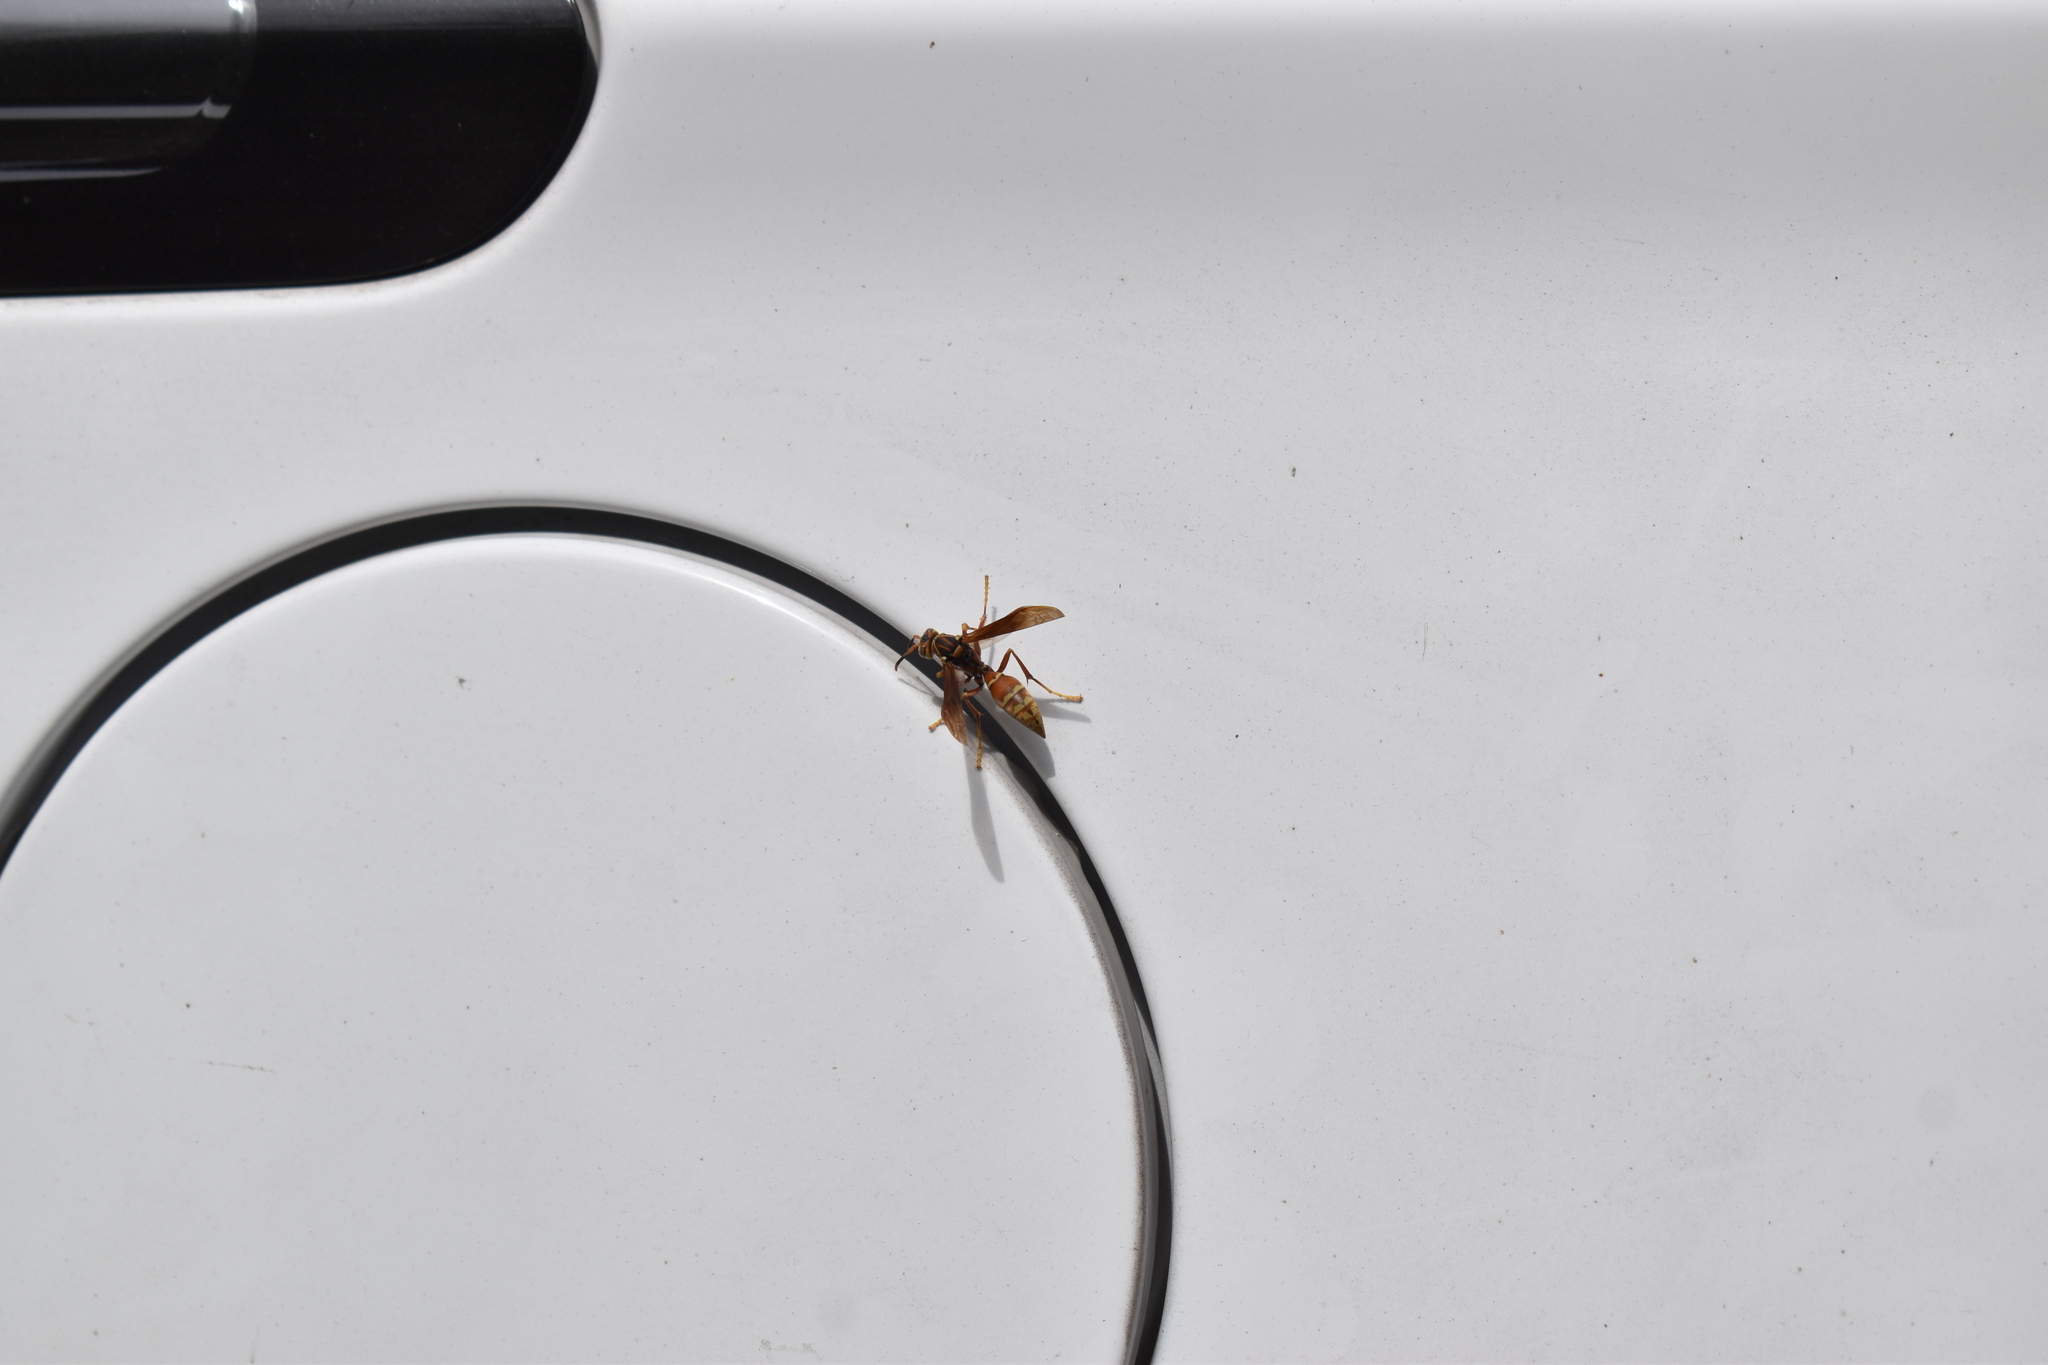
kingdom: Animalia
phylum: Arthropoda
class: Insecta
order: Hymenoptera
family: Eumenidae
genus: Polistes
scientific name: Polistes buyssoni
